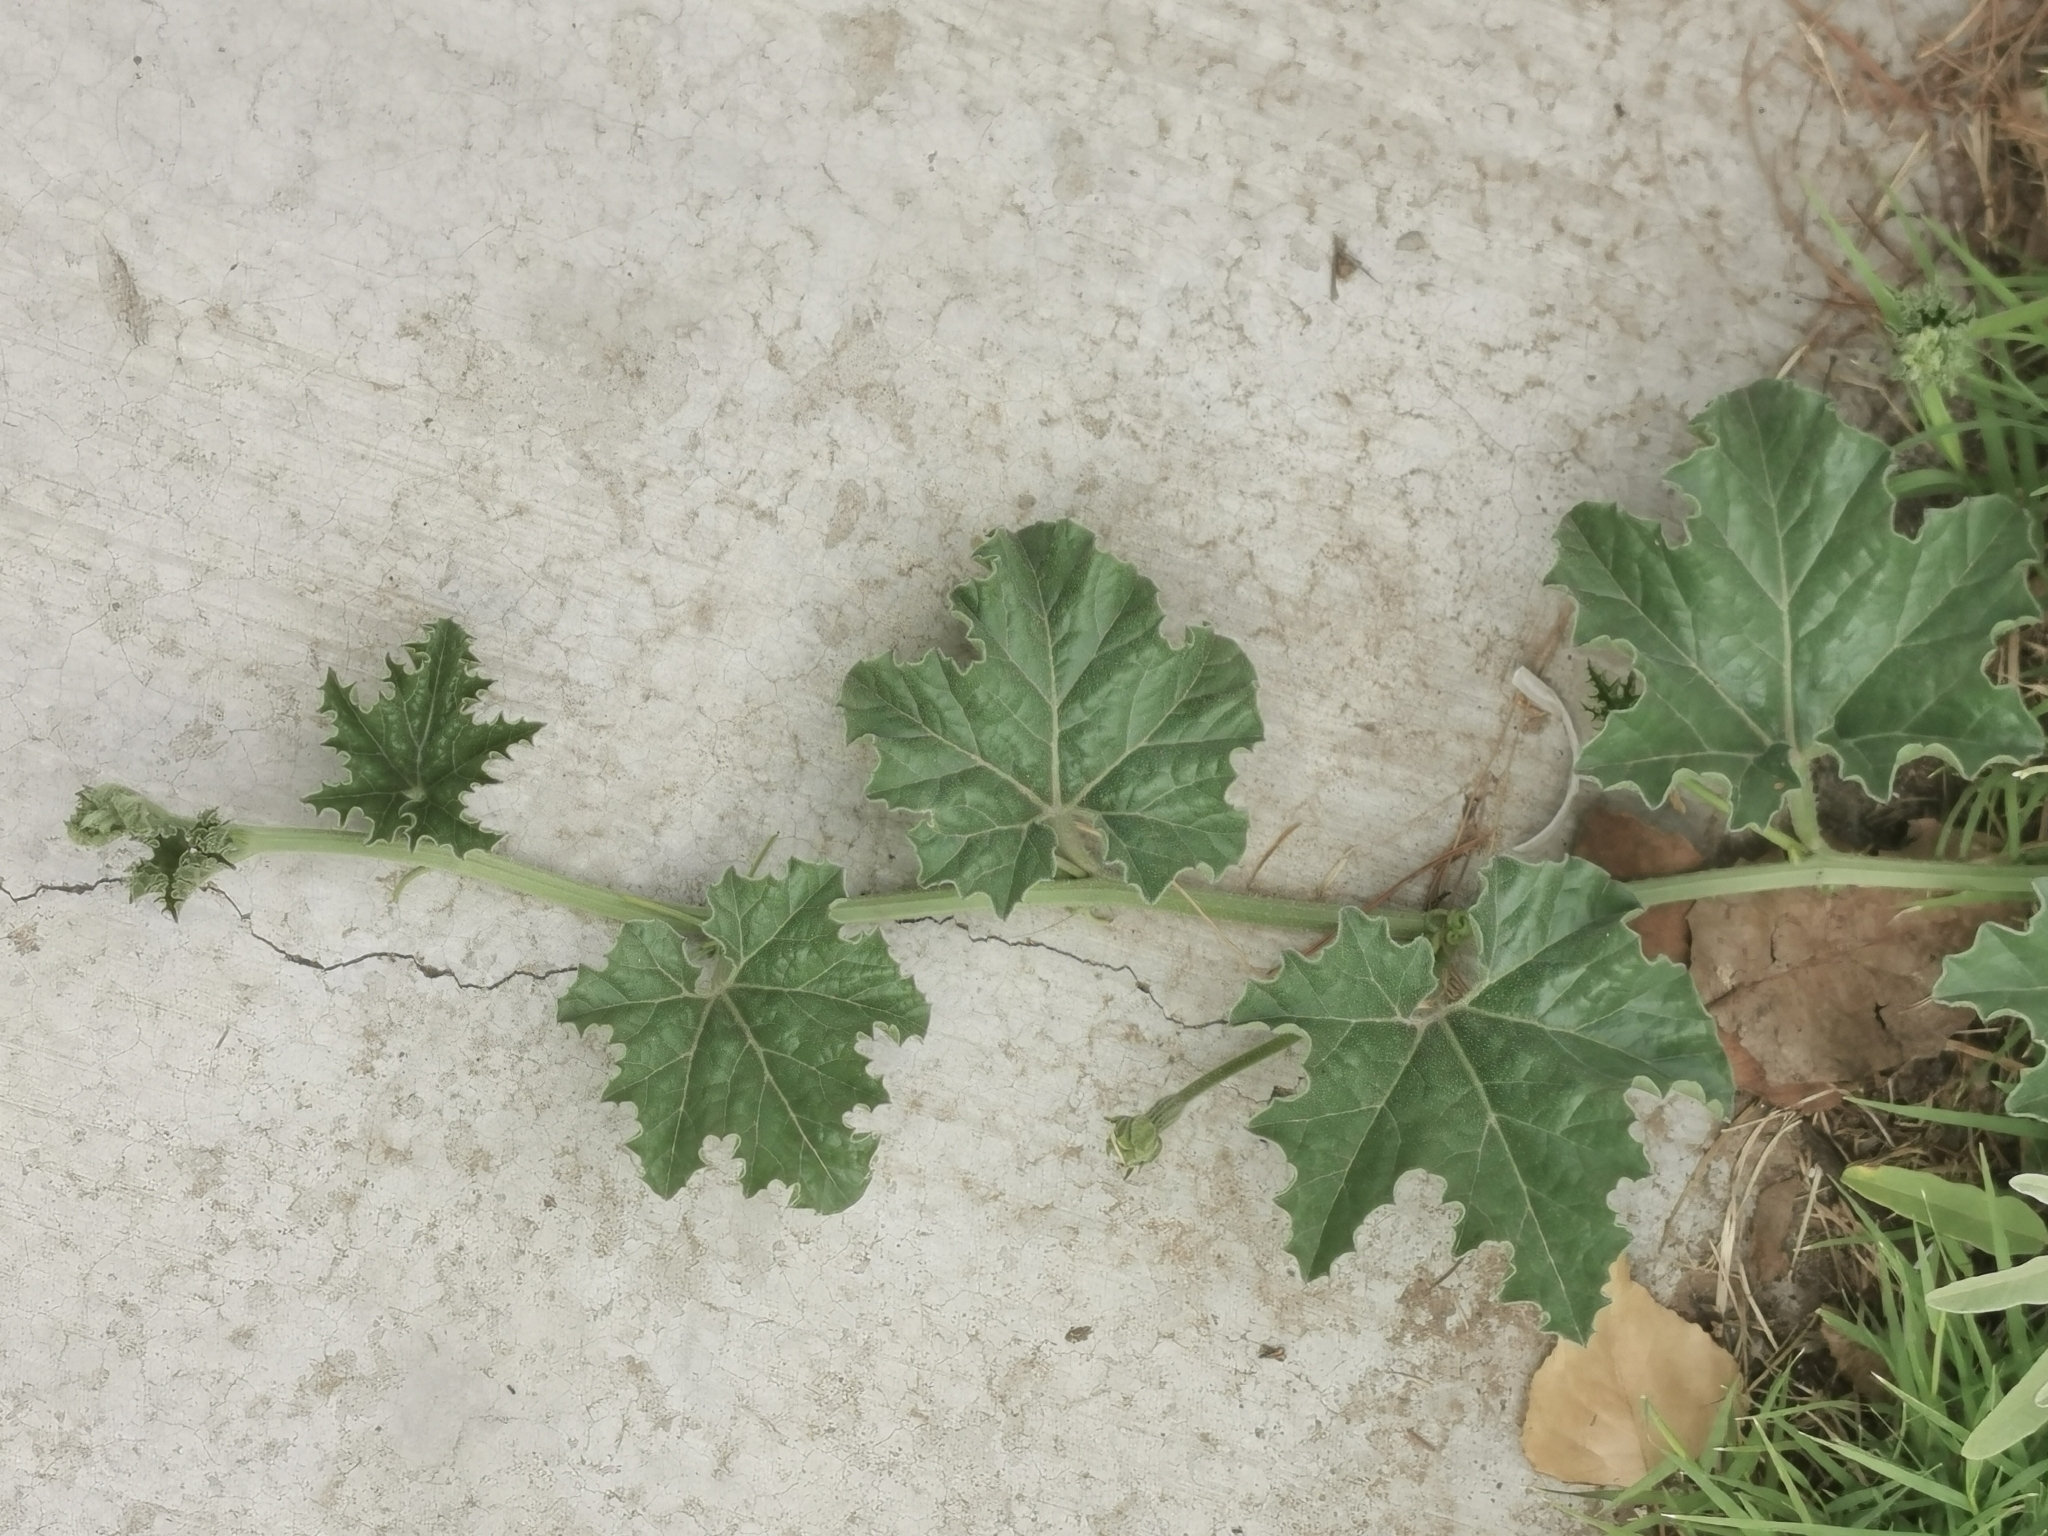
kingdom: Plantae
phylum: Tracheophyta
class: Magnoliopsida
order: Cucurbitales
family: Cucurbitaceae
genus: Apodanthera
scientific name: Apodanthera undulata
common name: Melon-loco
